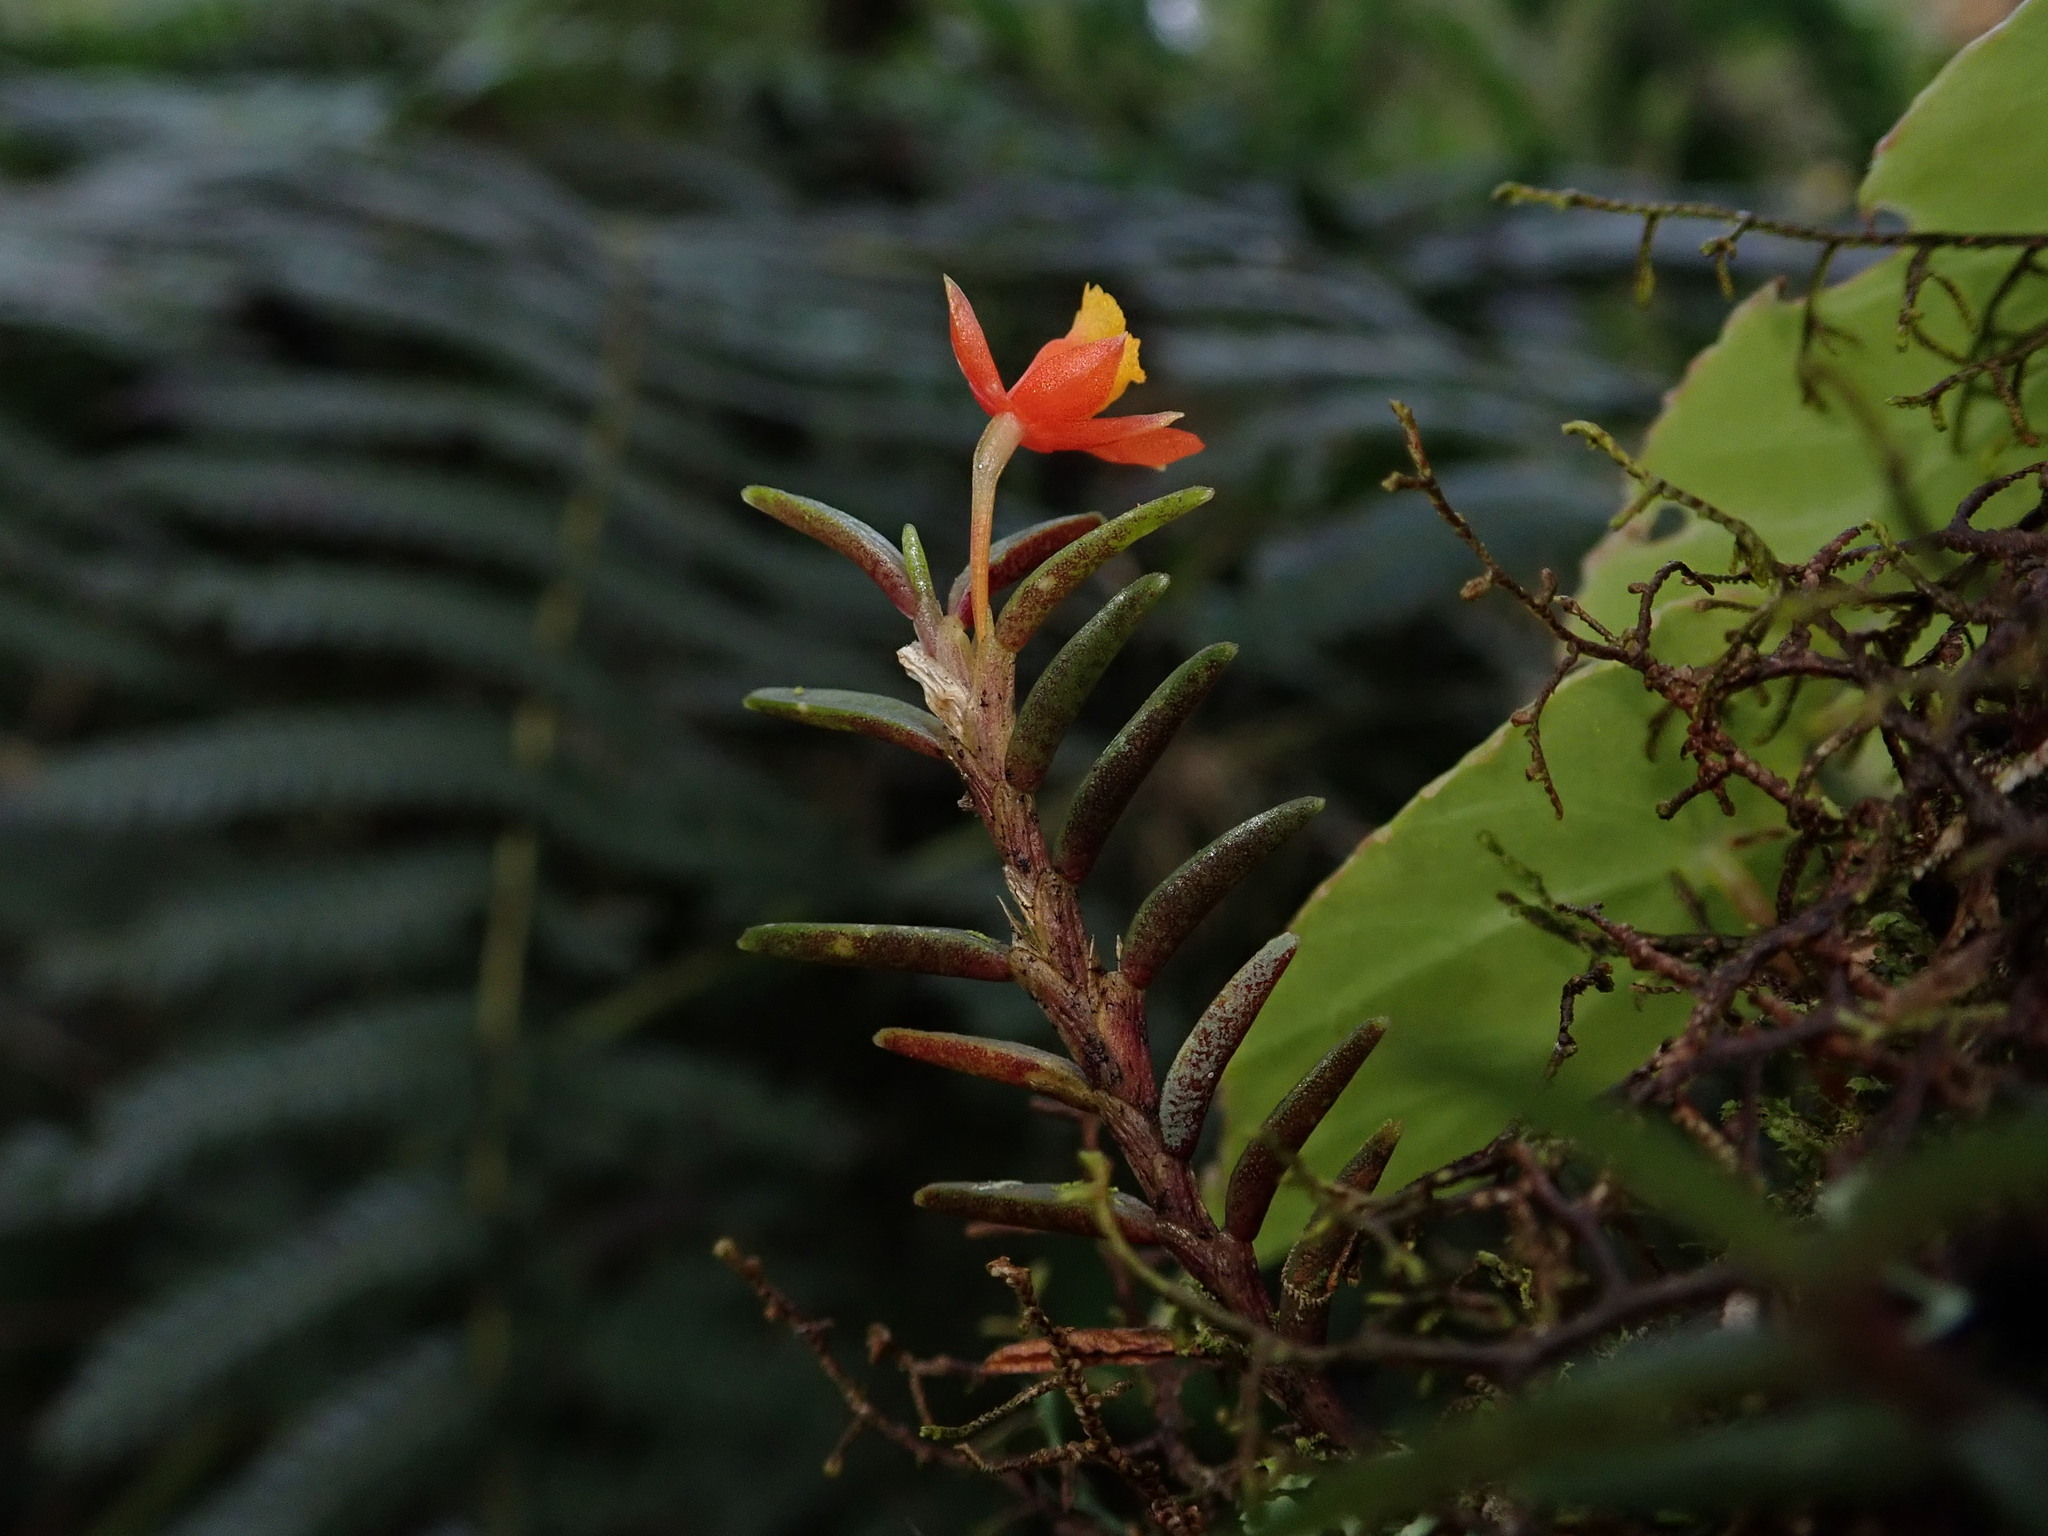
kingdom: Plantae
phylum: Tracheophyta
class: Liliopsida
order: Asparagales
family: Orchidaceae
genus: Fernandezia
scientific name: Fernandezia subbiflora
